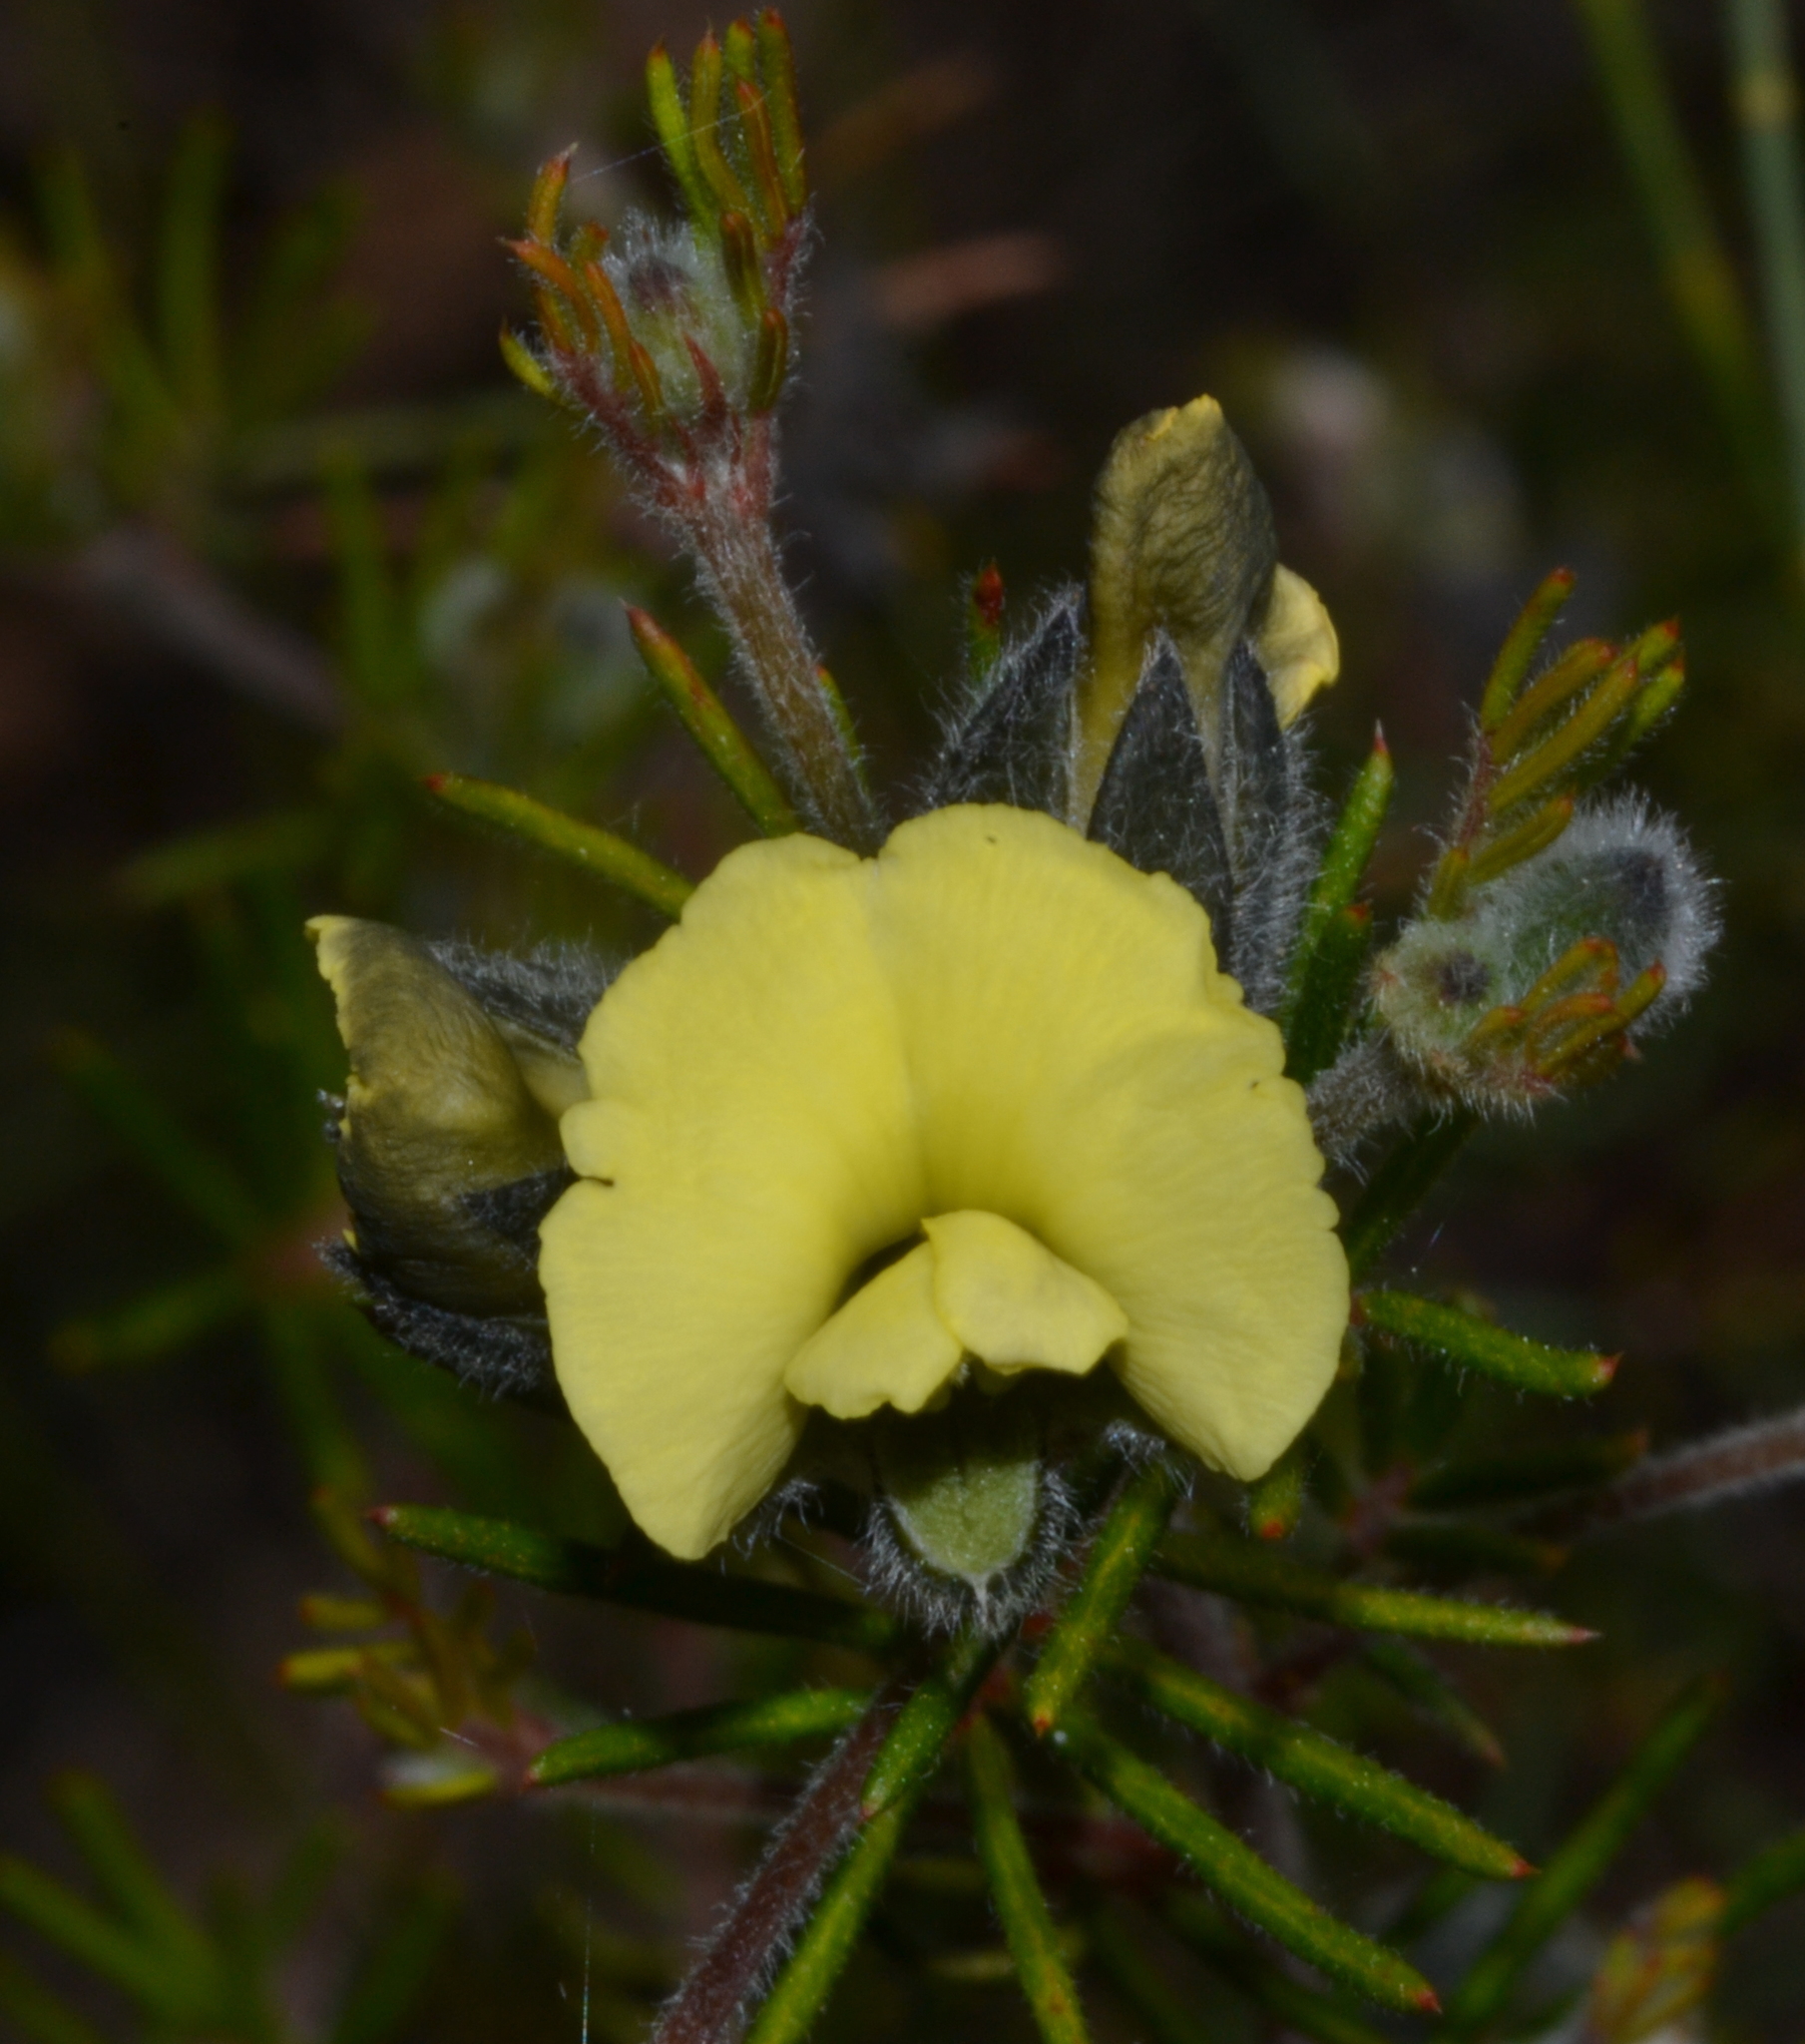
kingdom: Plantae
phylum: Tracheophyta
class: Magnoliopsida
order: Fabales
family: Fabaceae
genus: Gompholobium
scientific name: Gompholobium tomentosum
